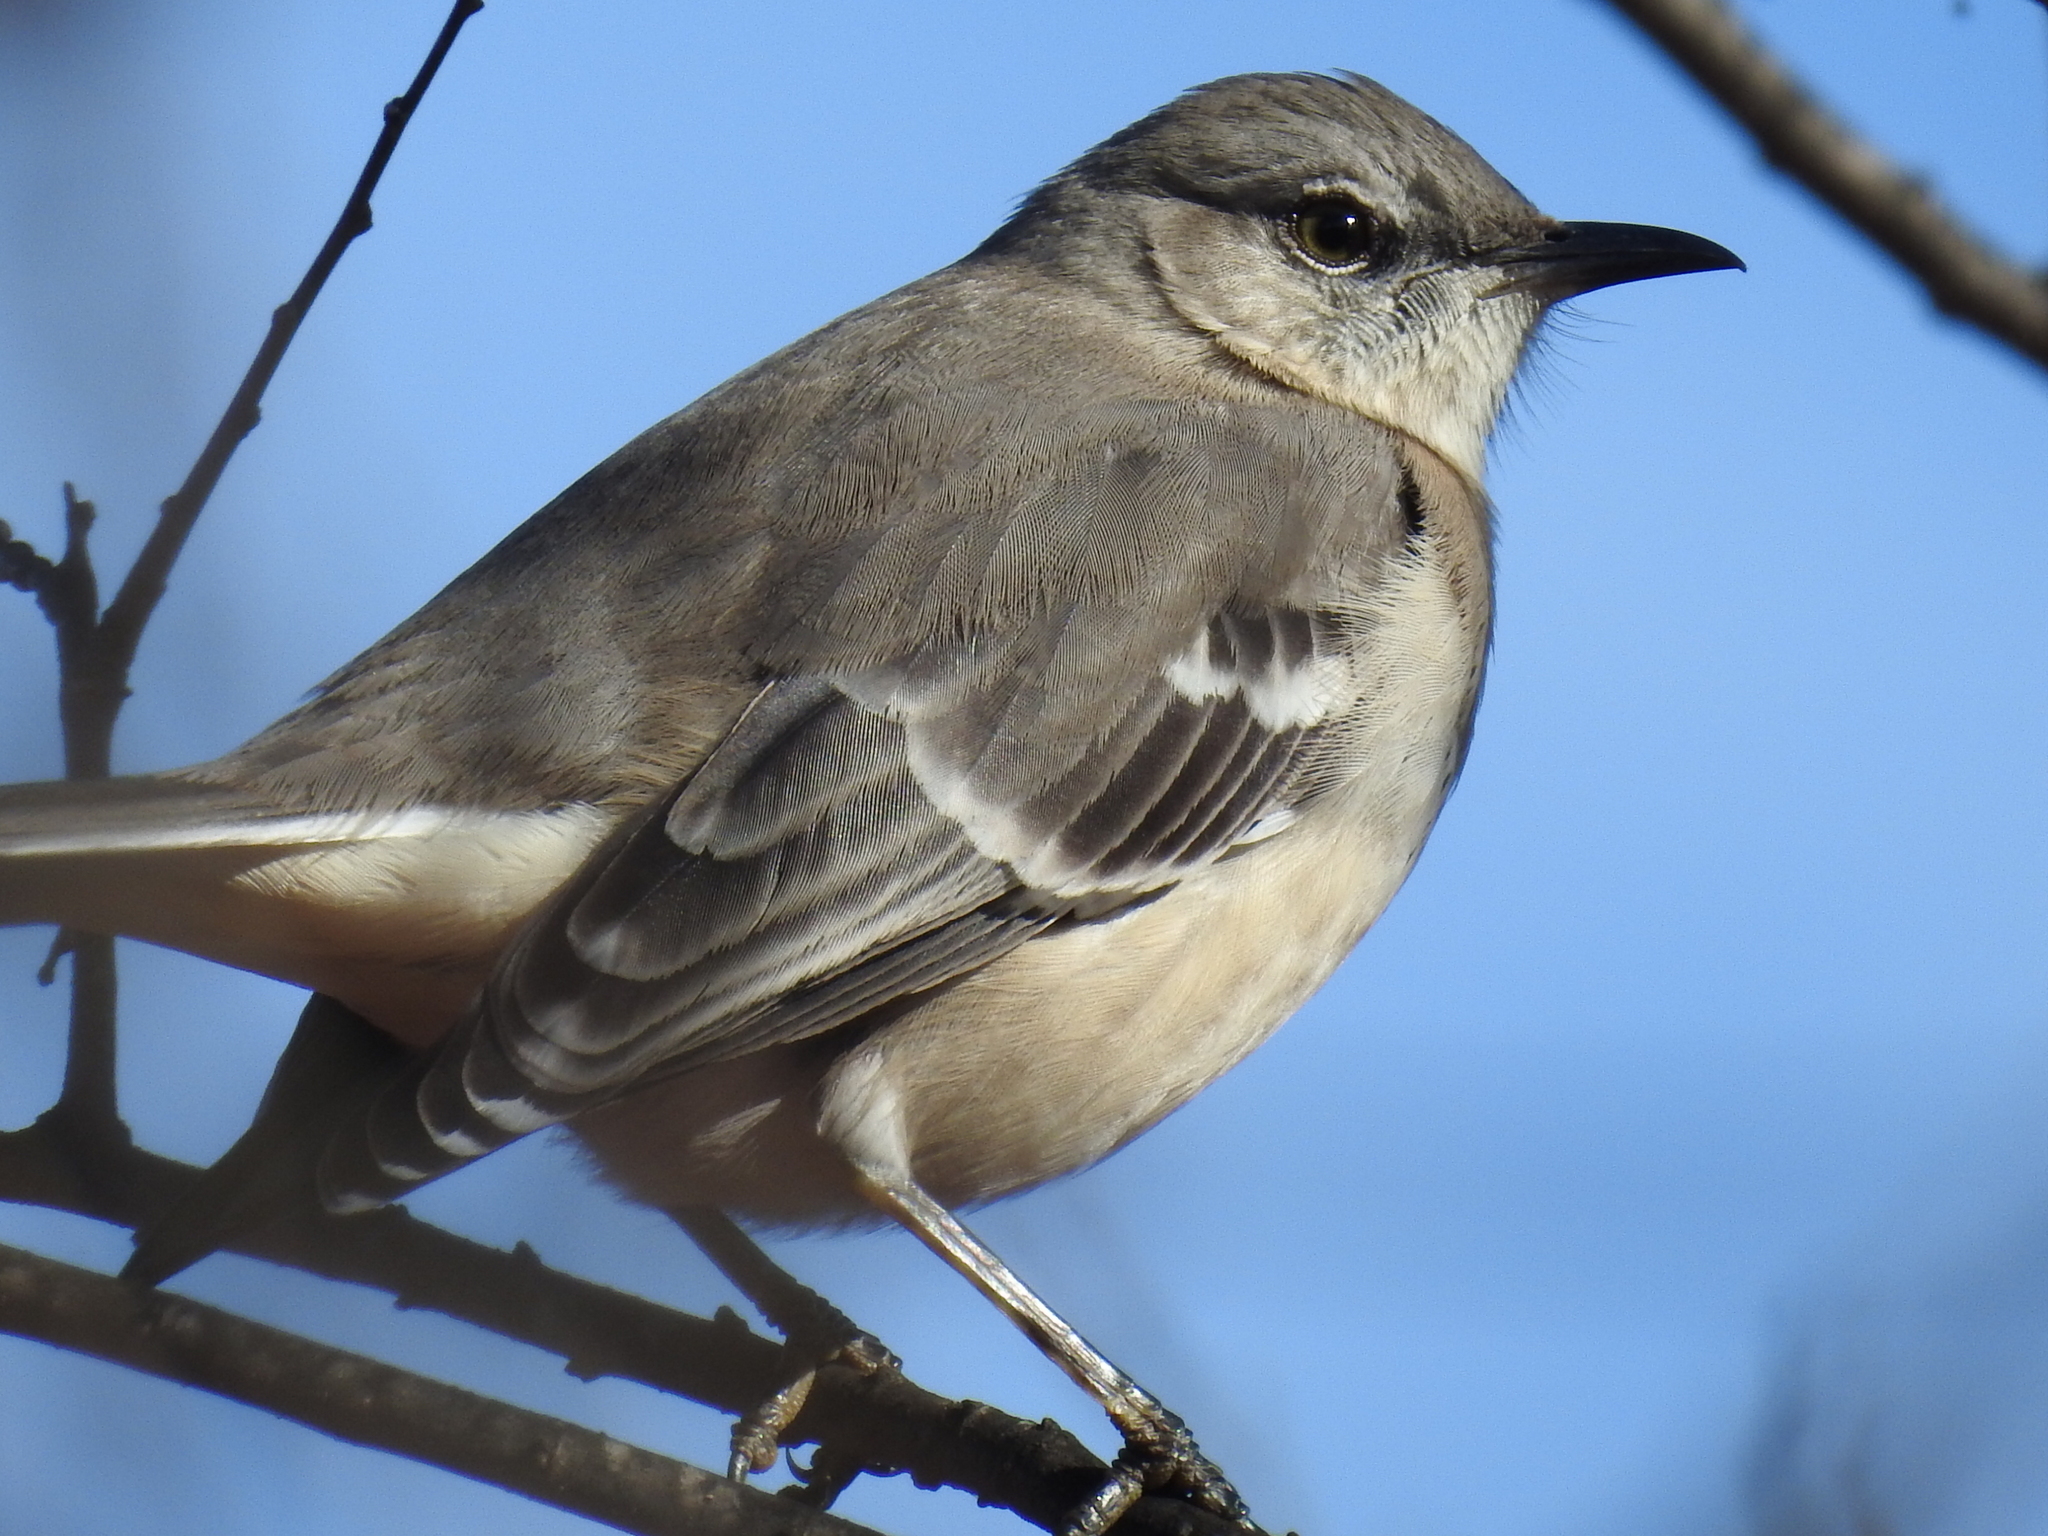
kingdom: Animalia
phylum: Chordata
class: Aves
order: Passeriformes
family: Mimidae
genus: Mimus
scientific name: Mimus polyglottos
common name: Northern mockingbird
